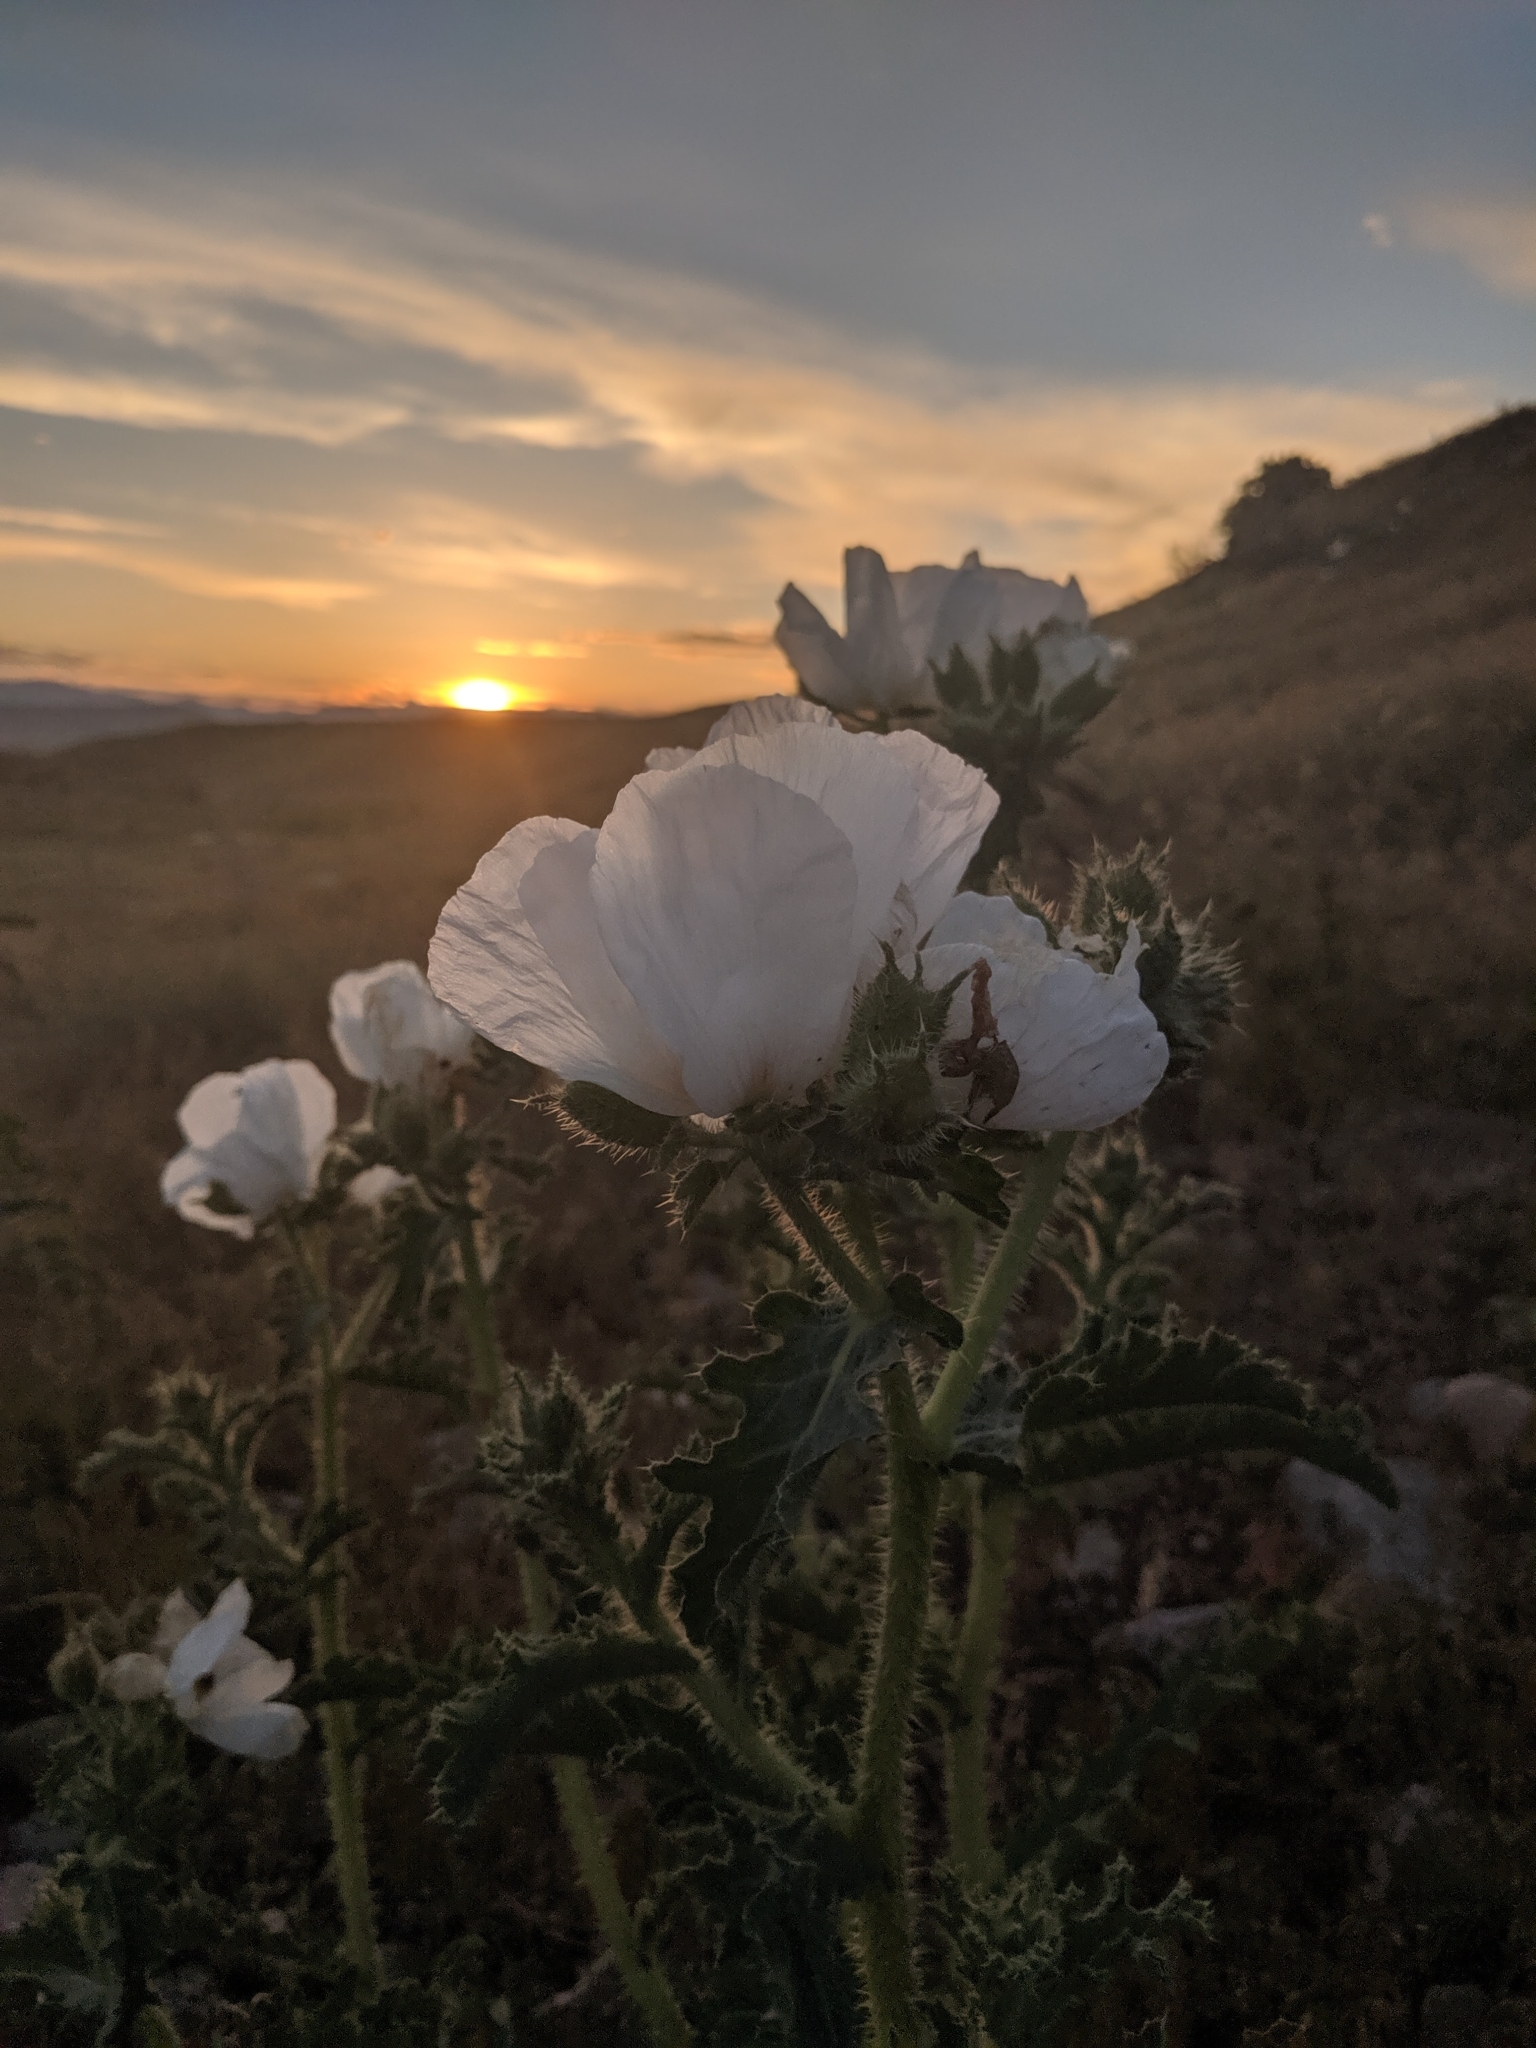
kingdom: Plantae
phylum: Tracheophyta
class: Magnoliopsida
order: Ranunculales
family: Papaveraceae
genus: Argemone
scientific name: Argemone munita
